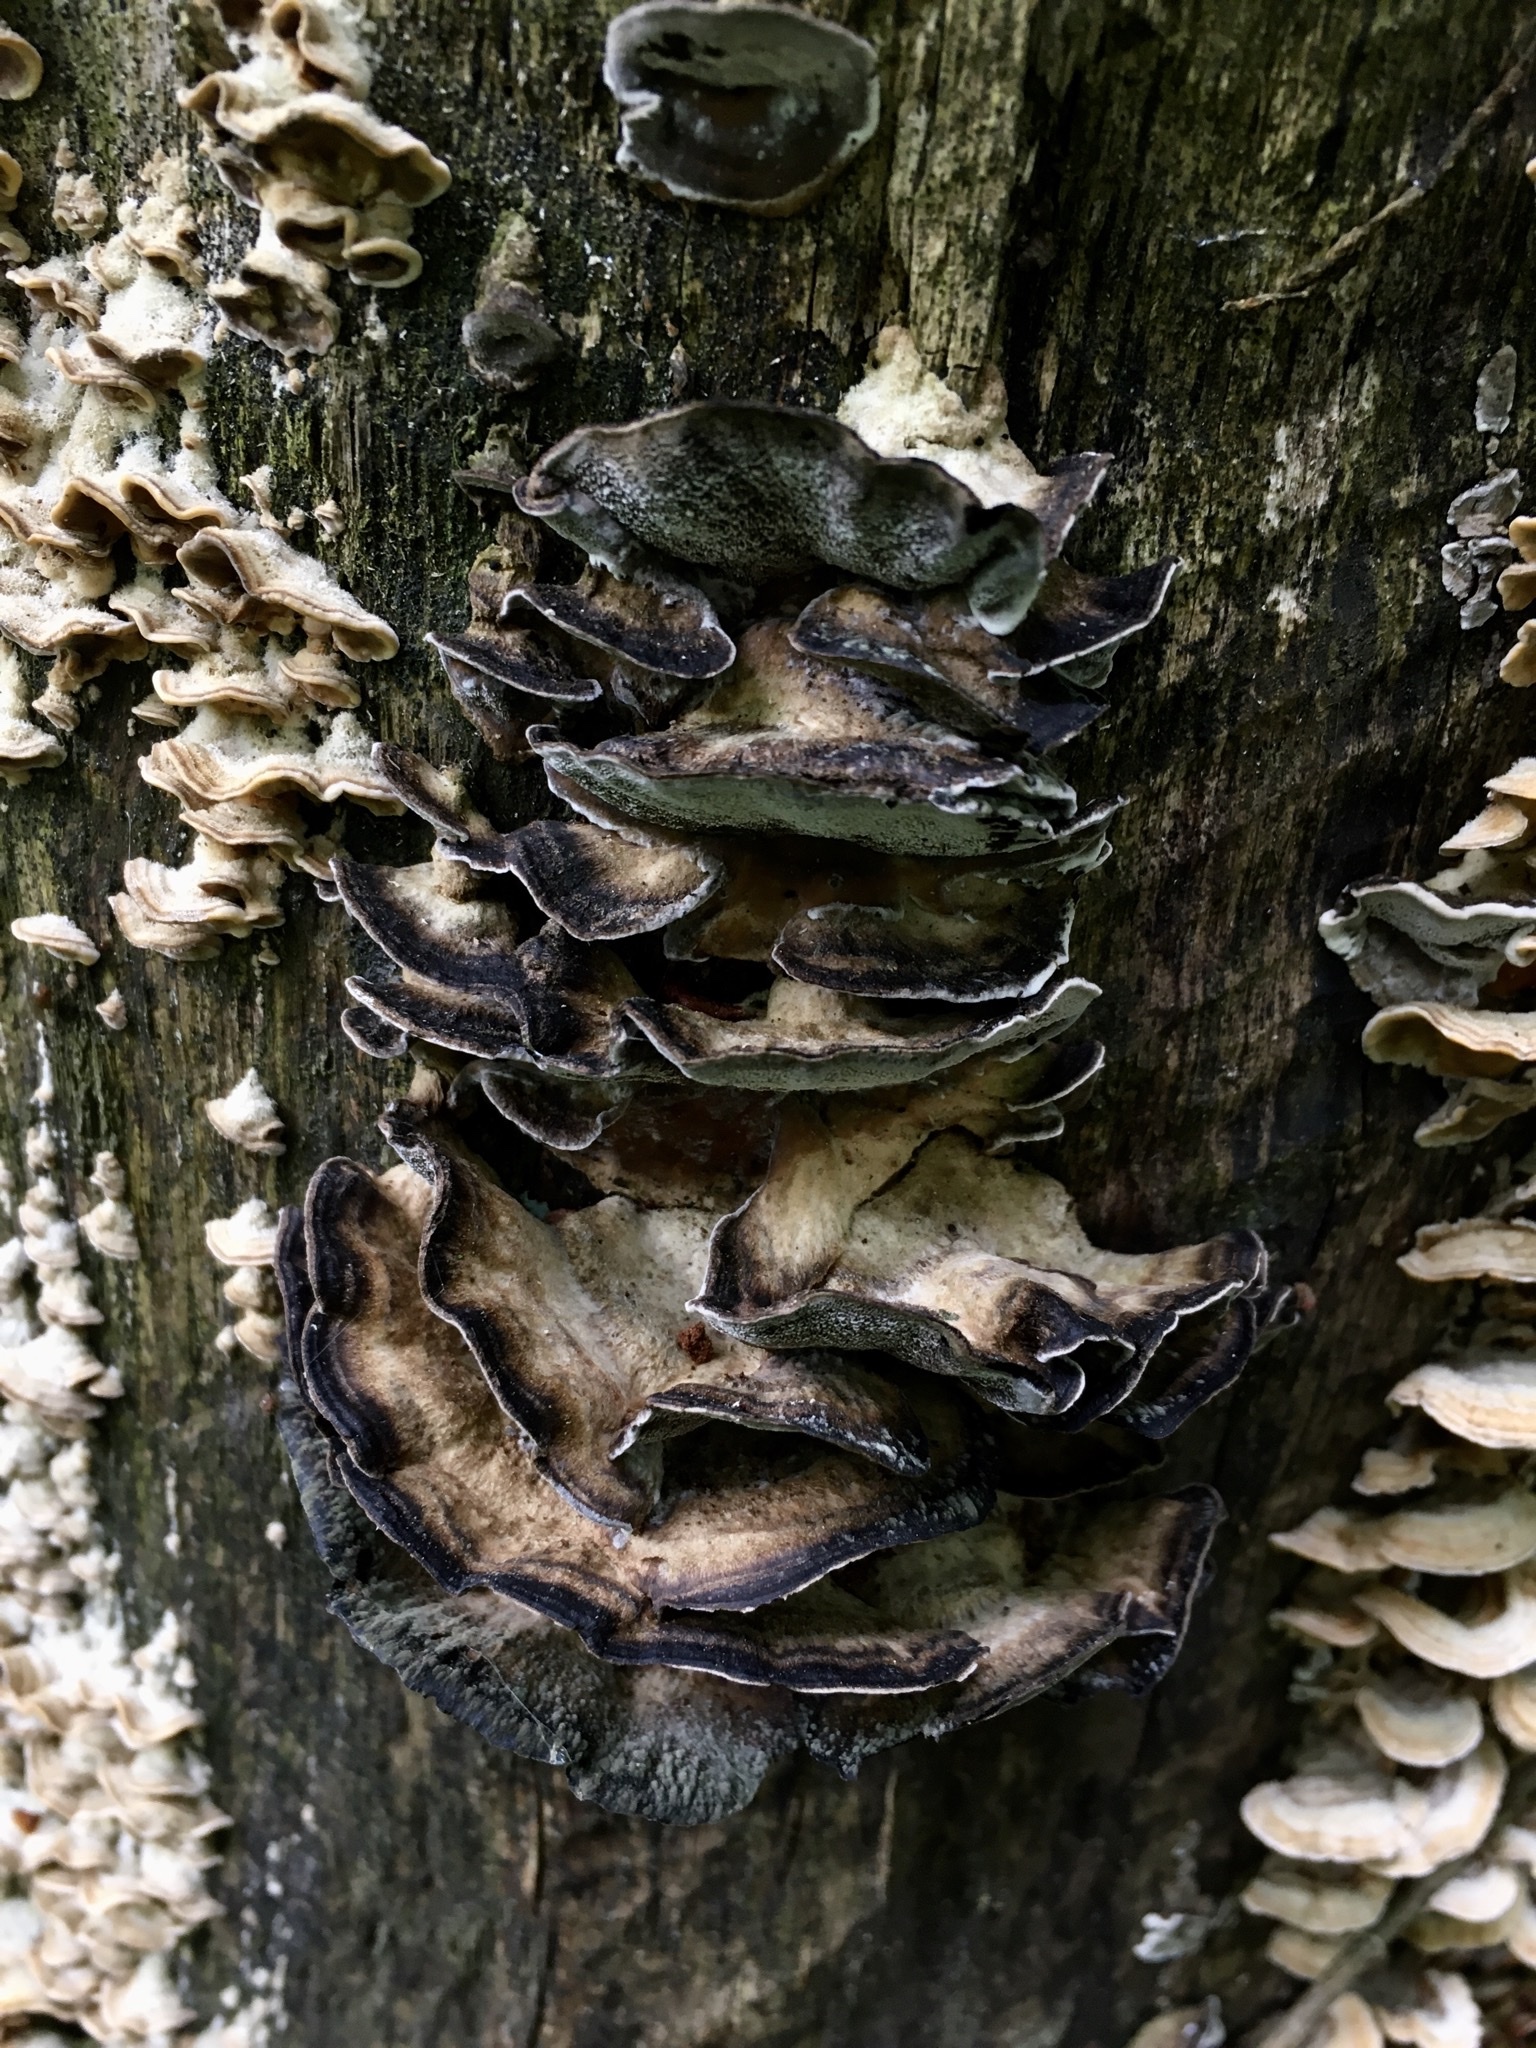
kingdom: Fungi
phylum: Basidiomycota
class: Agaricomycetes
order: Polyporales
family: Phanerochaetaceae
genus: Bjerkandera
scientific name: Bjerkandera adusta
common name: Smoky bracket
